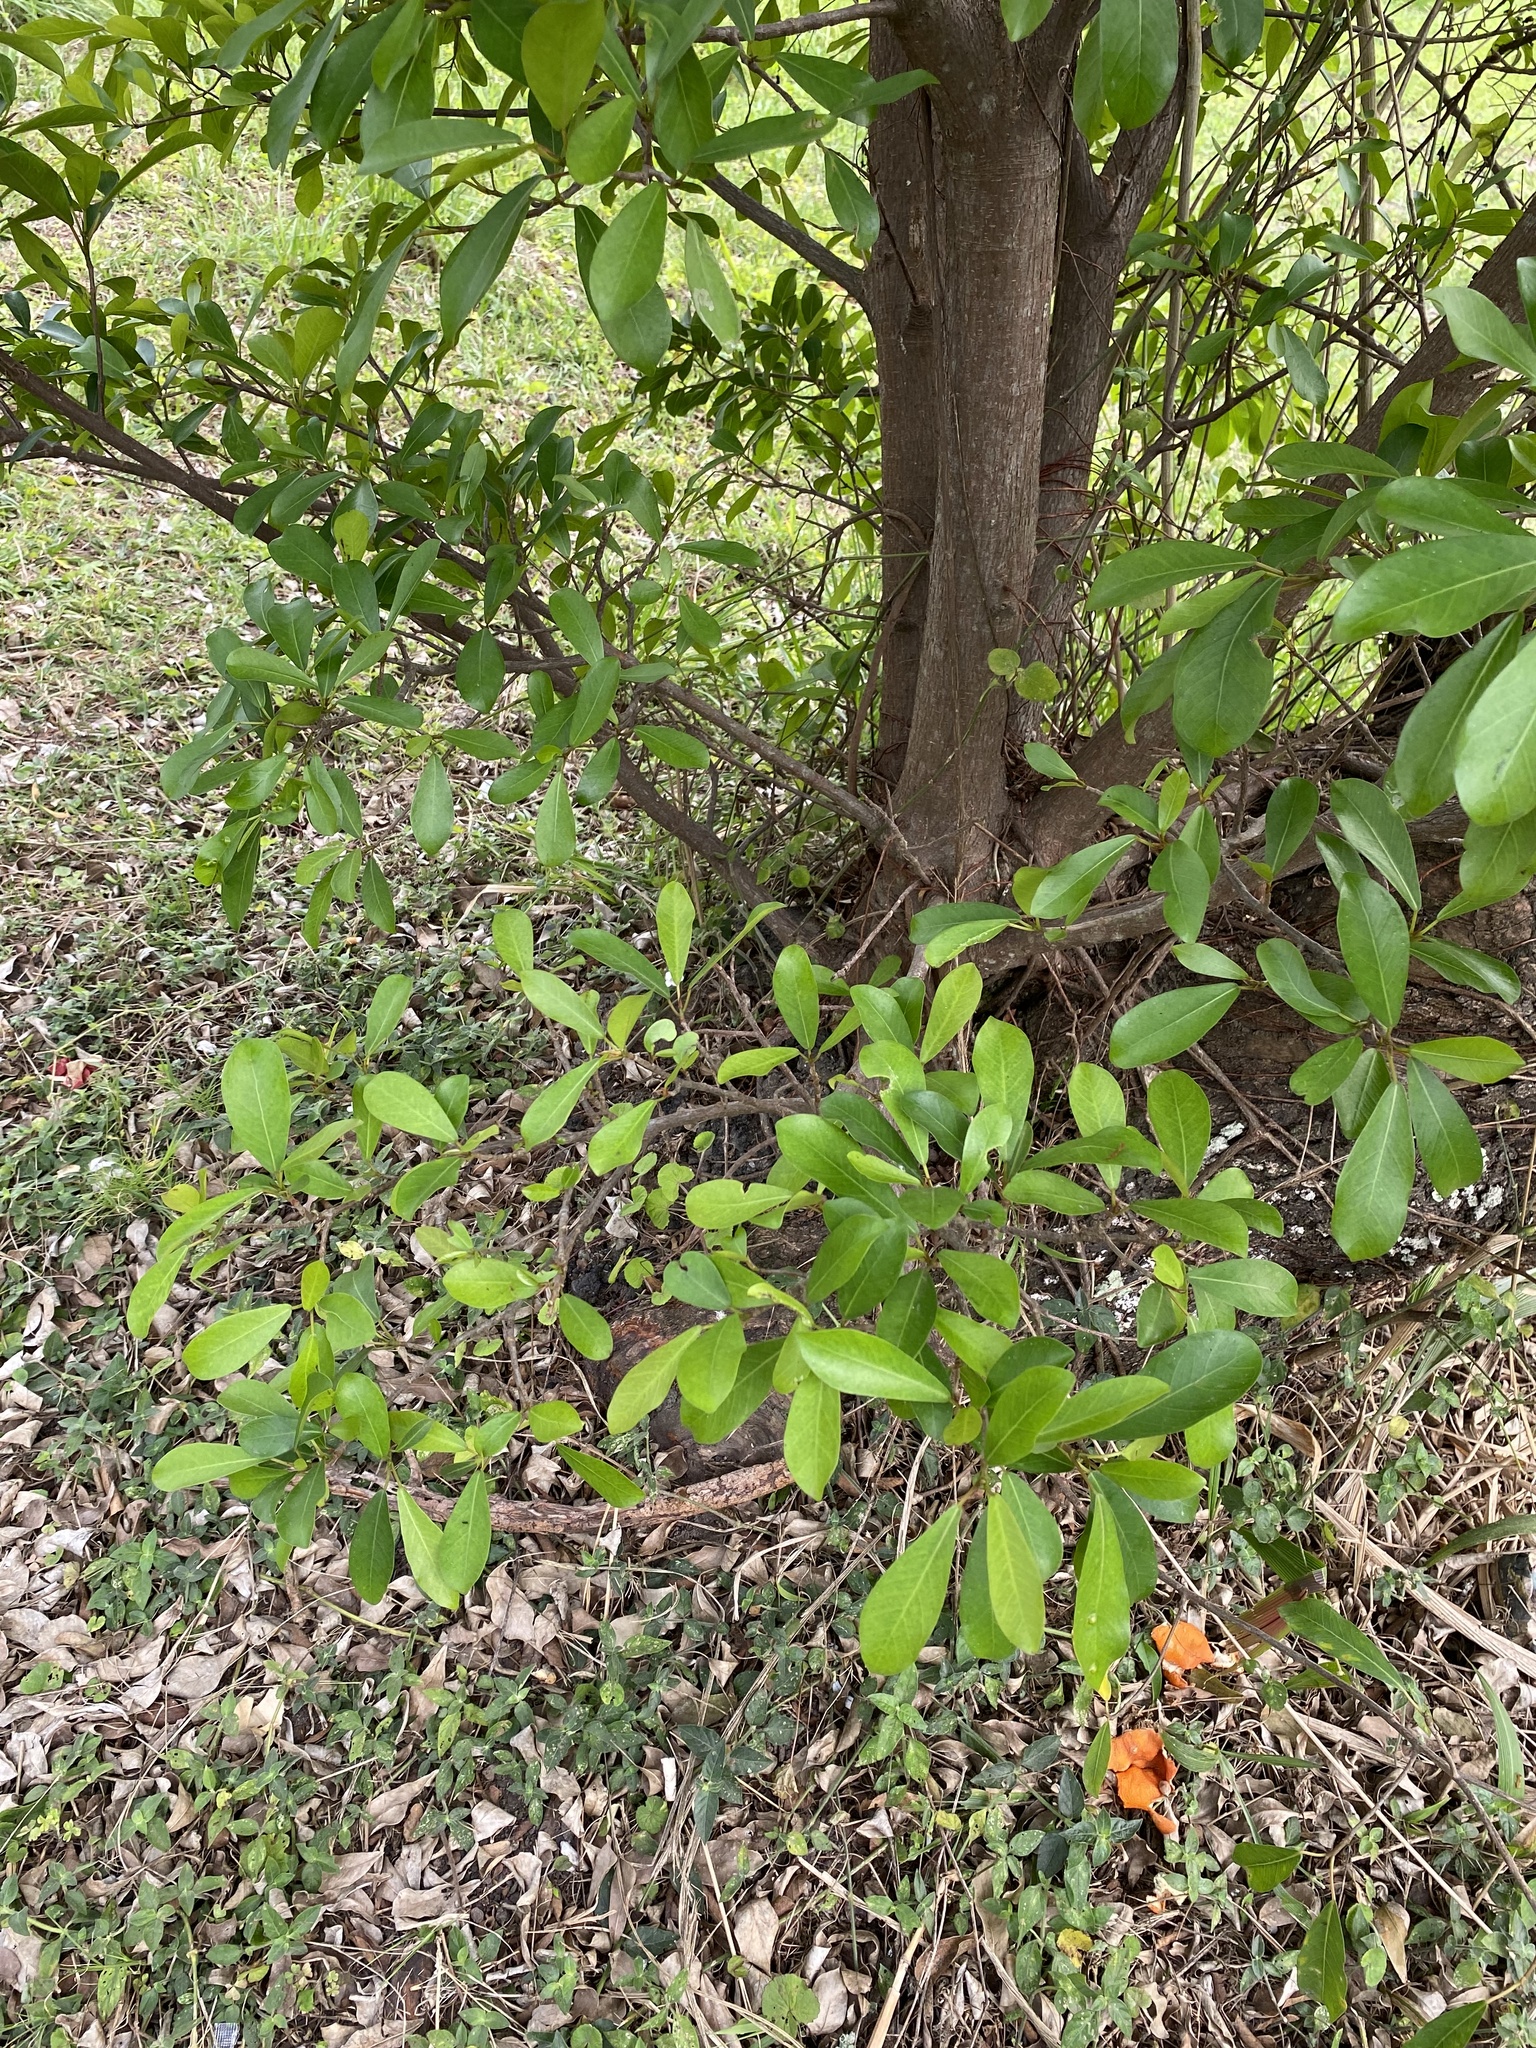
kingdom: Plantae
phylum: Tracheophyta
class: Magnoliopsida
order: Rosales
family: Moraceae
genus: Ficus
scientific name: Ficus thonningii
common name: Fig
